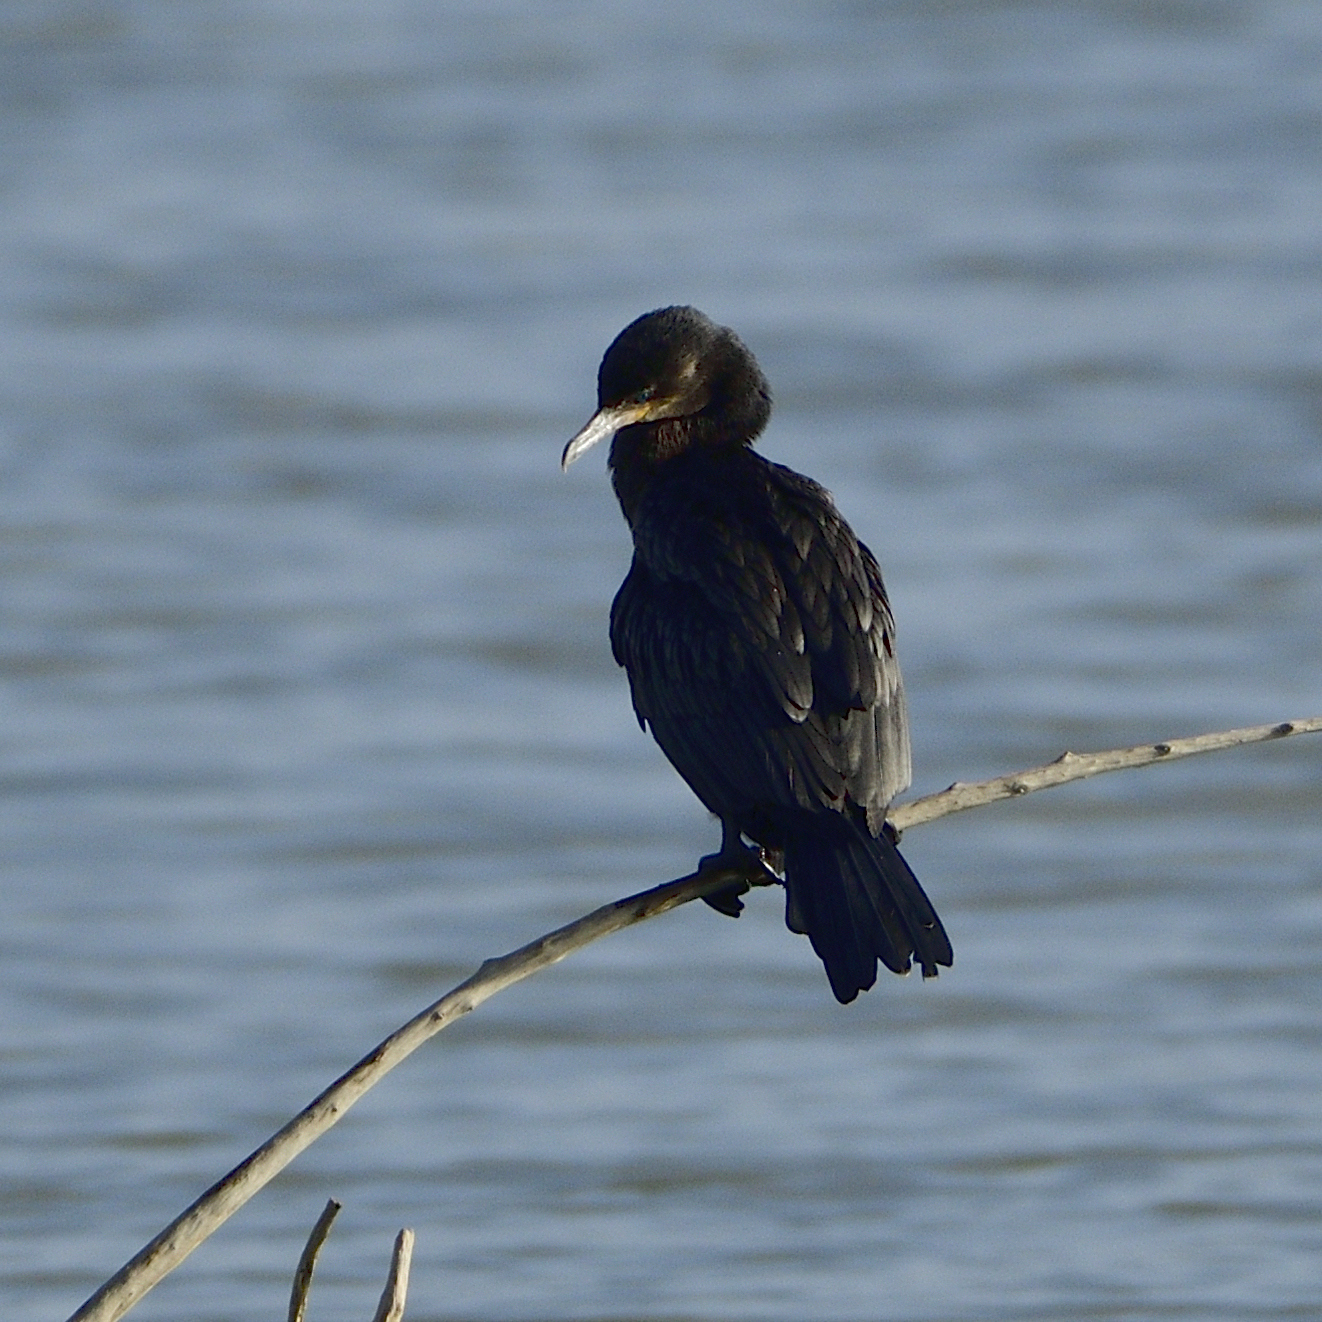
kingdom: Animalia
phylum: Chordata
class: Aves
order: Suliformes
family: Phalacrocoracidae
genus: Phalacrocorax
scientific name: Phalacrocorax brasilianus
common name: Neotropic cormorant
